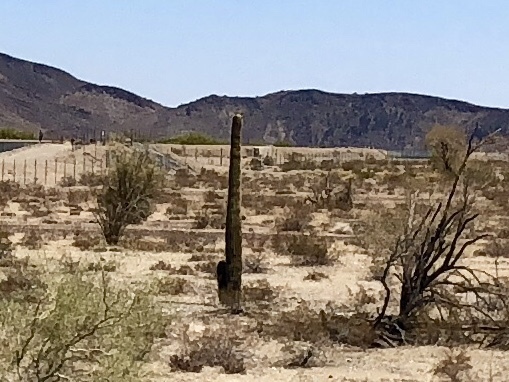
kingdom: Plantae
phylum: Tracheophyta
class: Magnoliopsida
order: Caryophyllales
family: Cactaceae
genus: Carnegiea
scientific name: Carnegiea gigantea
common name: Saguaro
